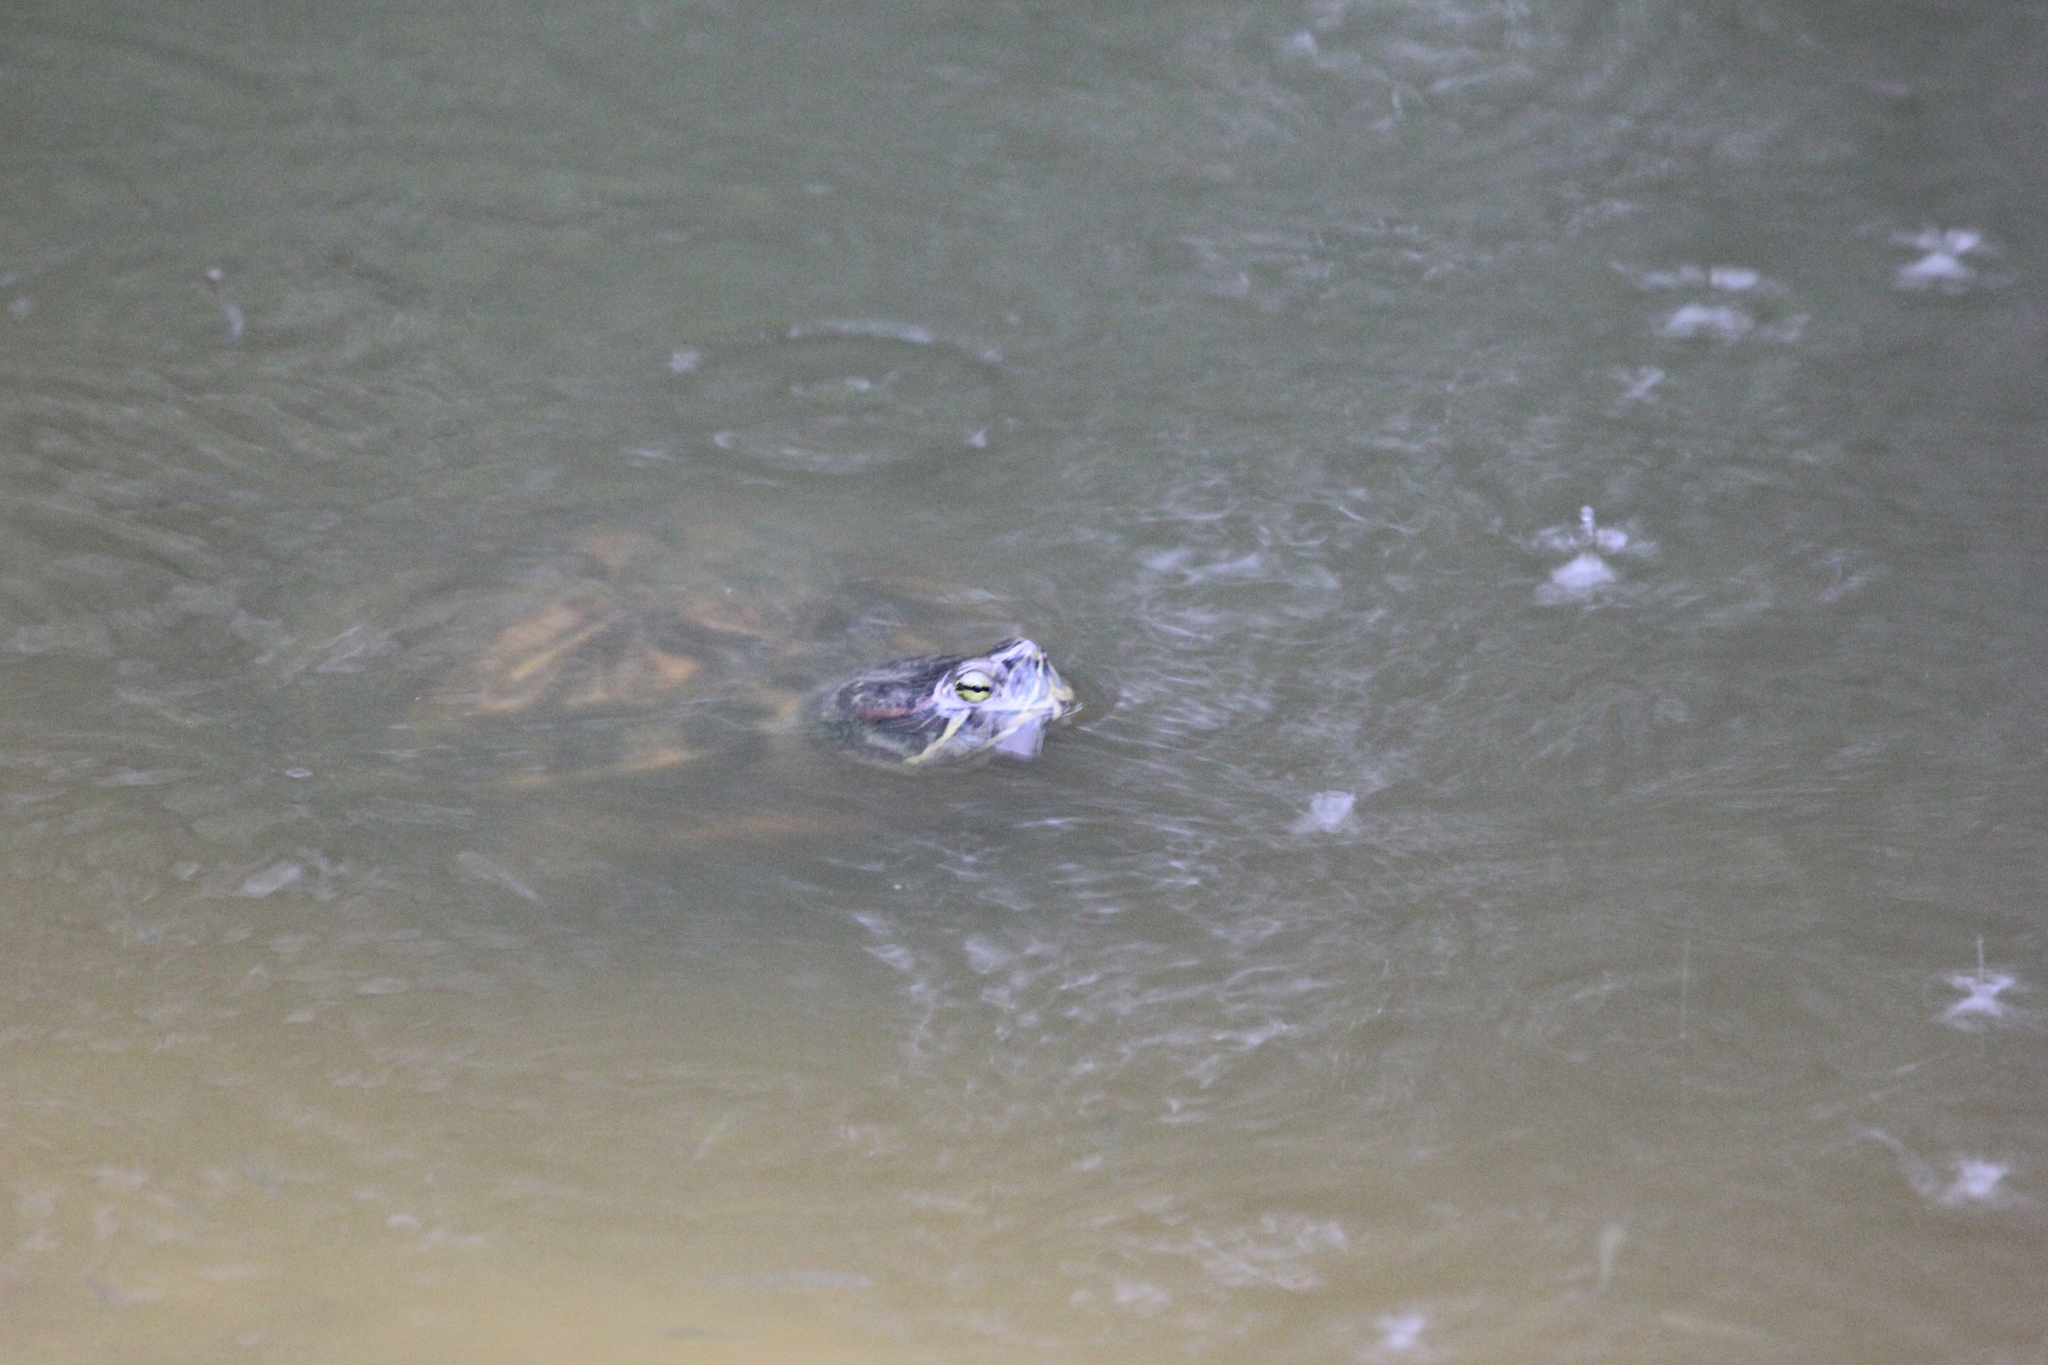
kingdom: Animalia
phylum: Chordata
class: Testudines
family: Emydidae
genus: Trachemys
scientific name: Trachemys scripta
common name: Slider
